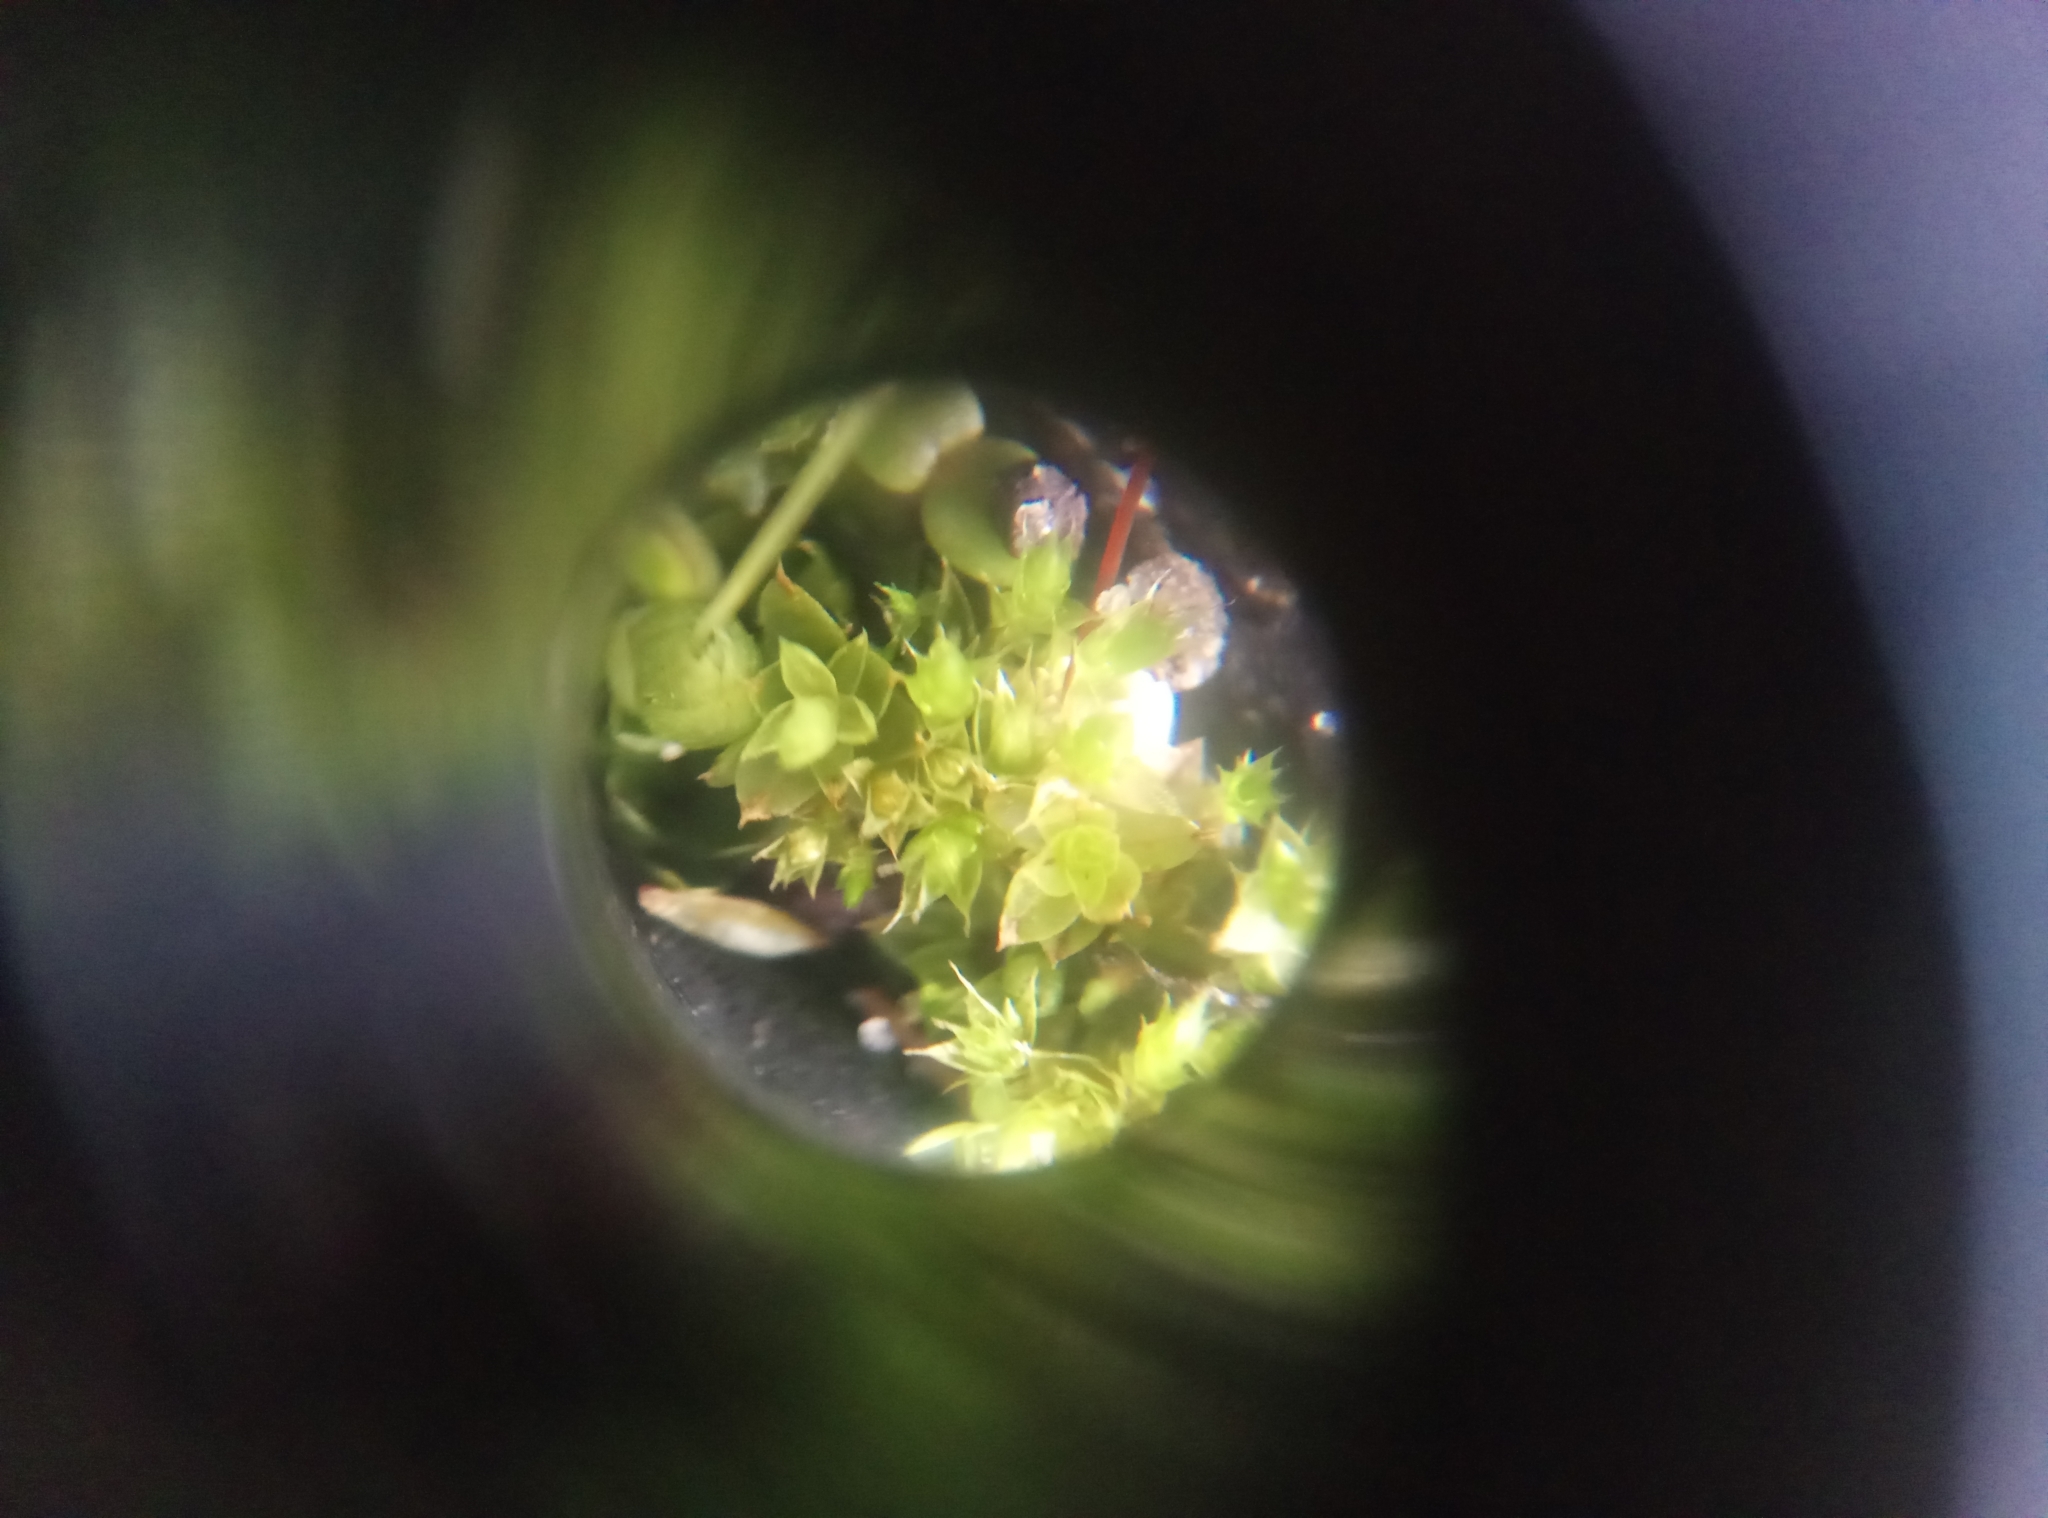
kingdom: Plantae
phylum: Bryophyta
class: Bryopsida
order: Funariales
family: Funariaceae
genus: Funaria
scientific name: Funaria hygrometrica
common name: Common cord moss
